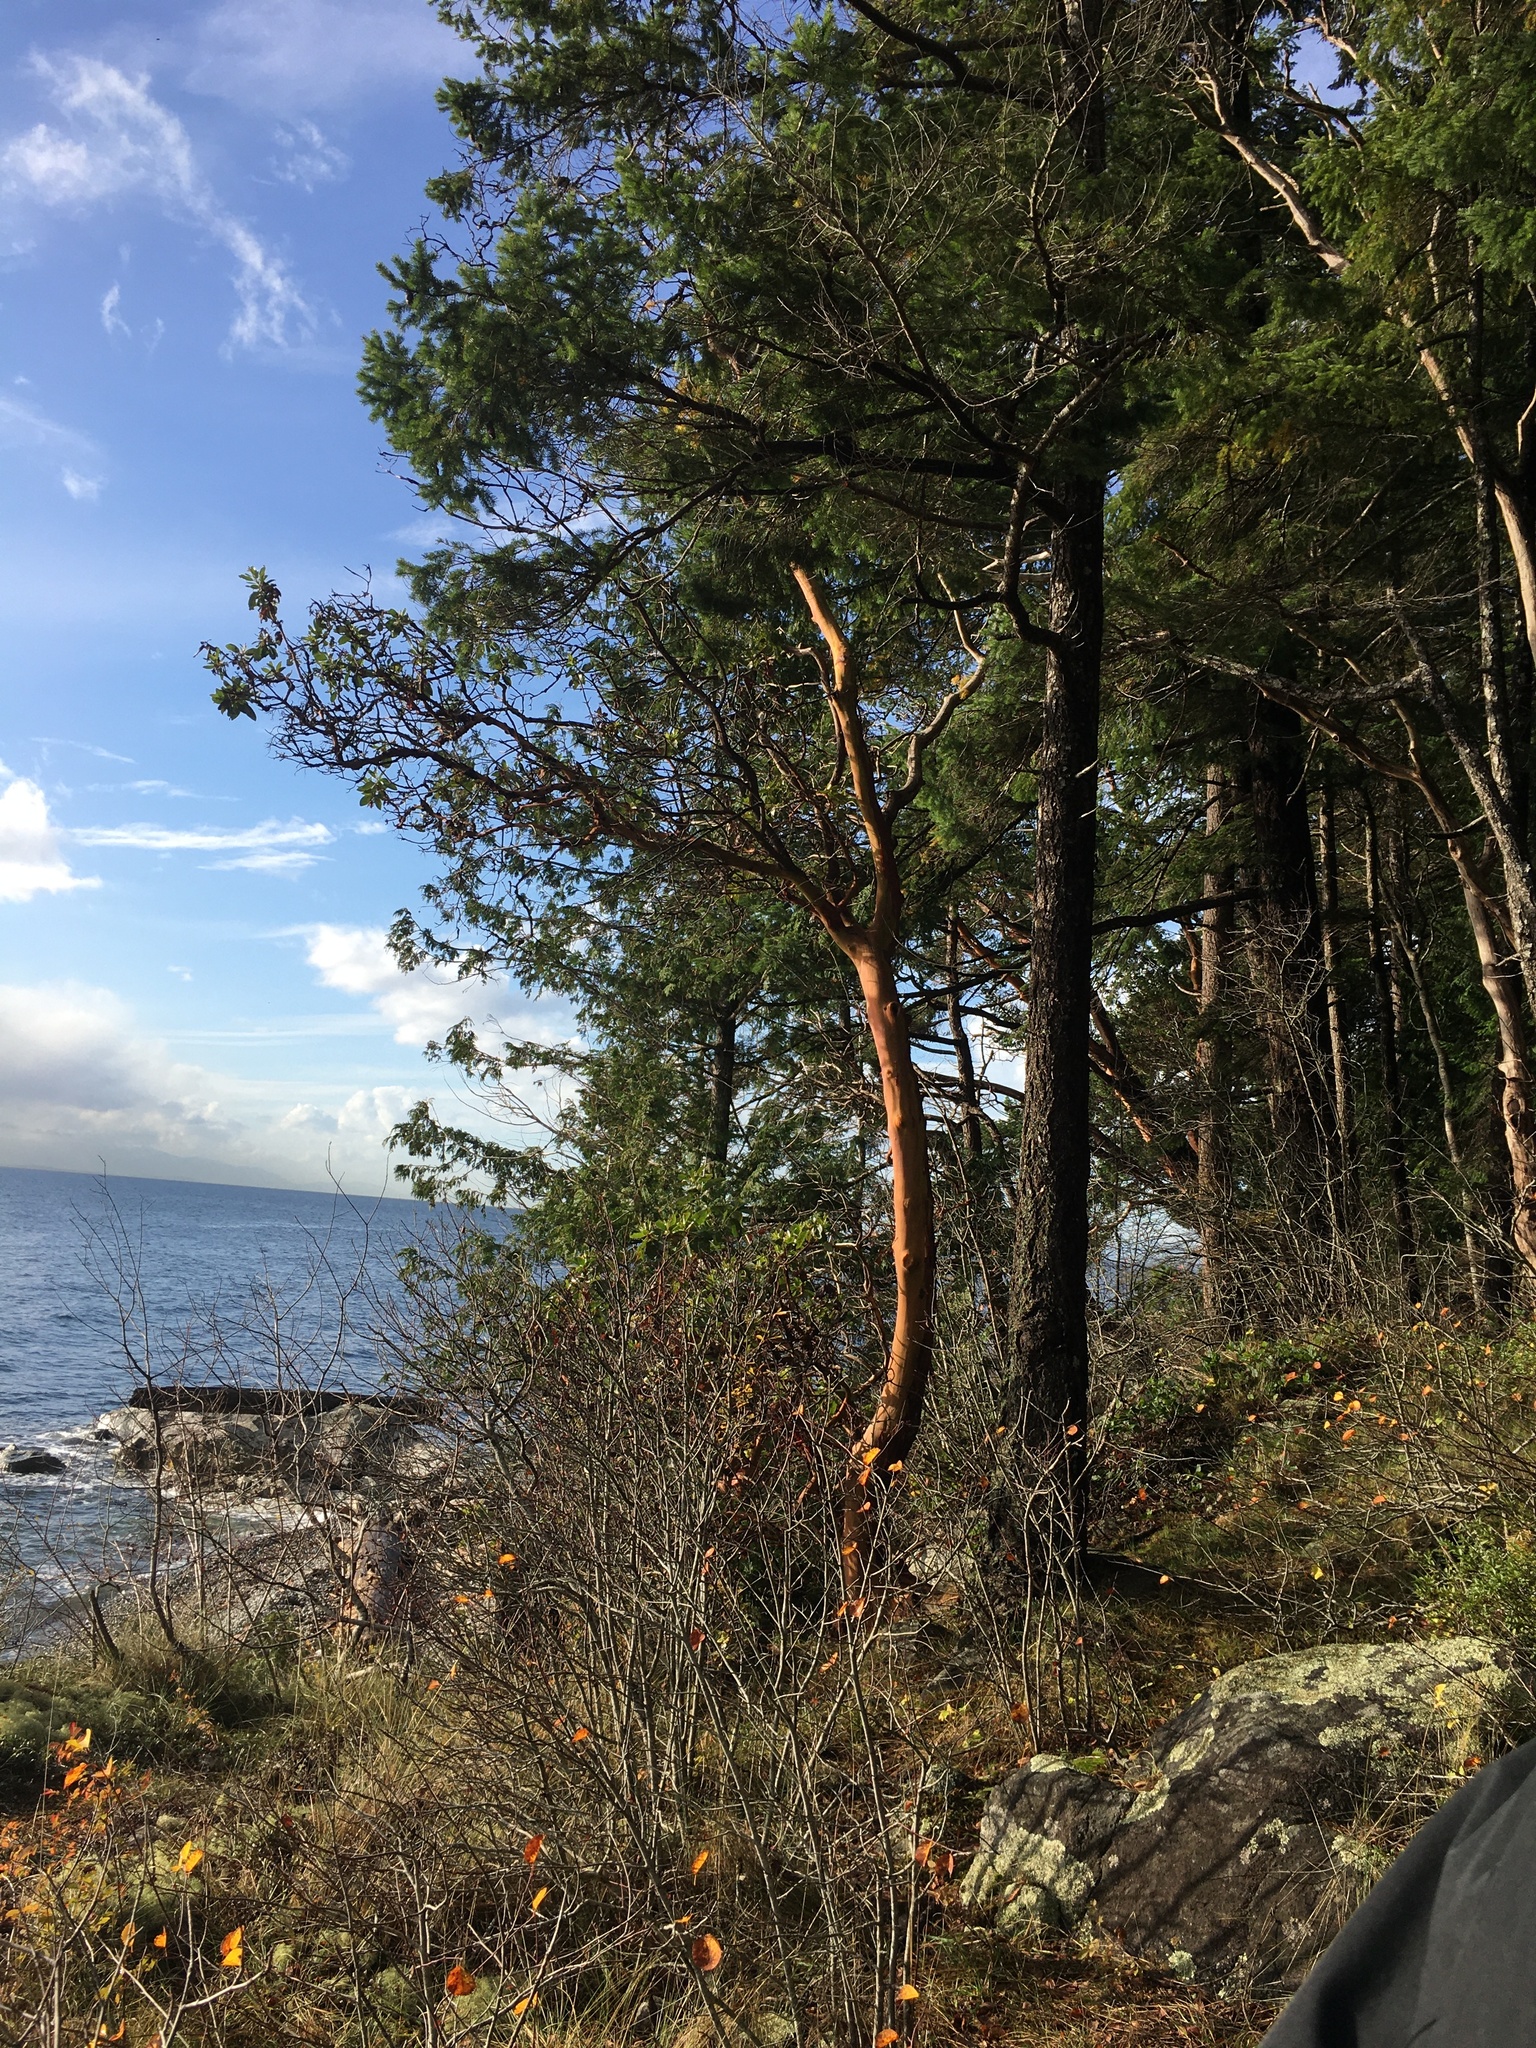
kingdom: Plantae
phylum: Tracheophyta
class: Magnoliopsida
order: Ericales
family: Ericaceae
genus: Arbutus
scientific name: Arbutus menziesii
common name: Pacific madrone
